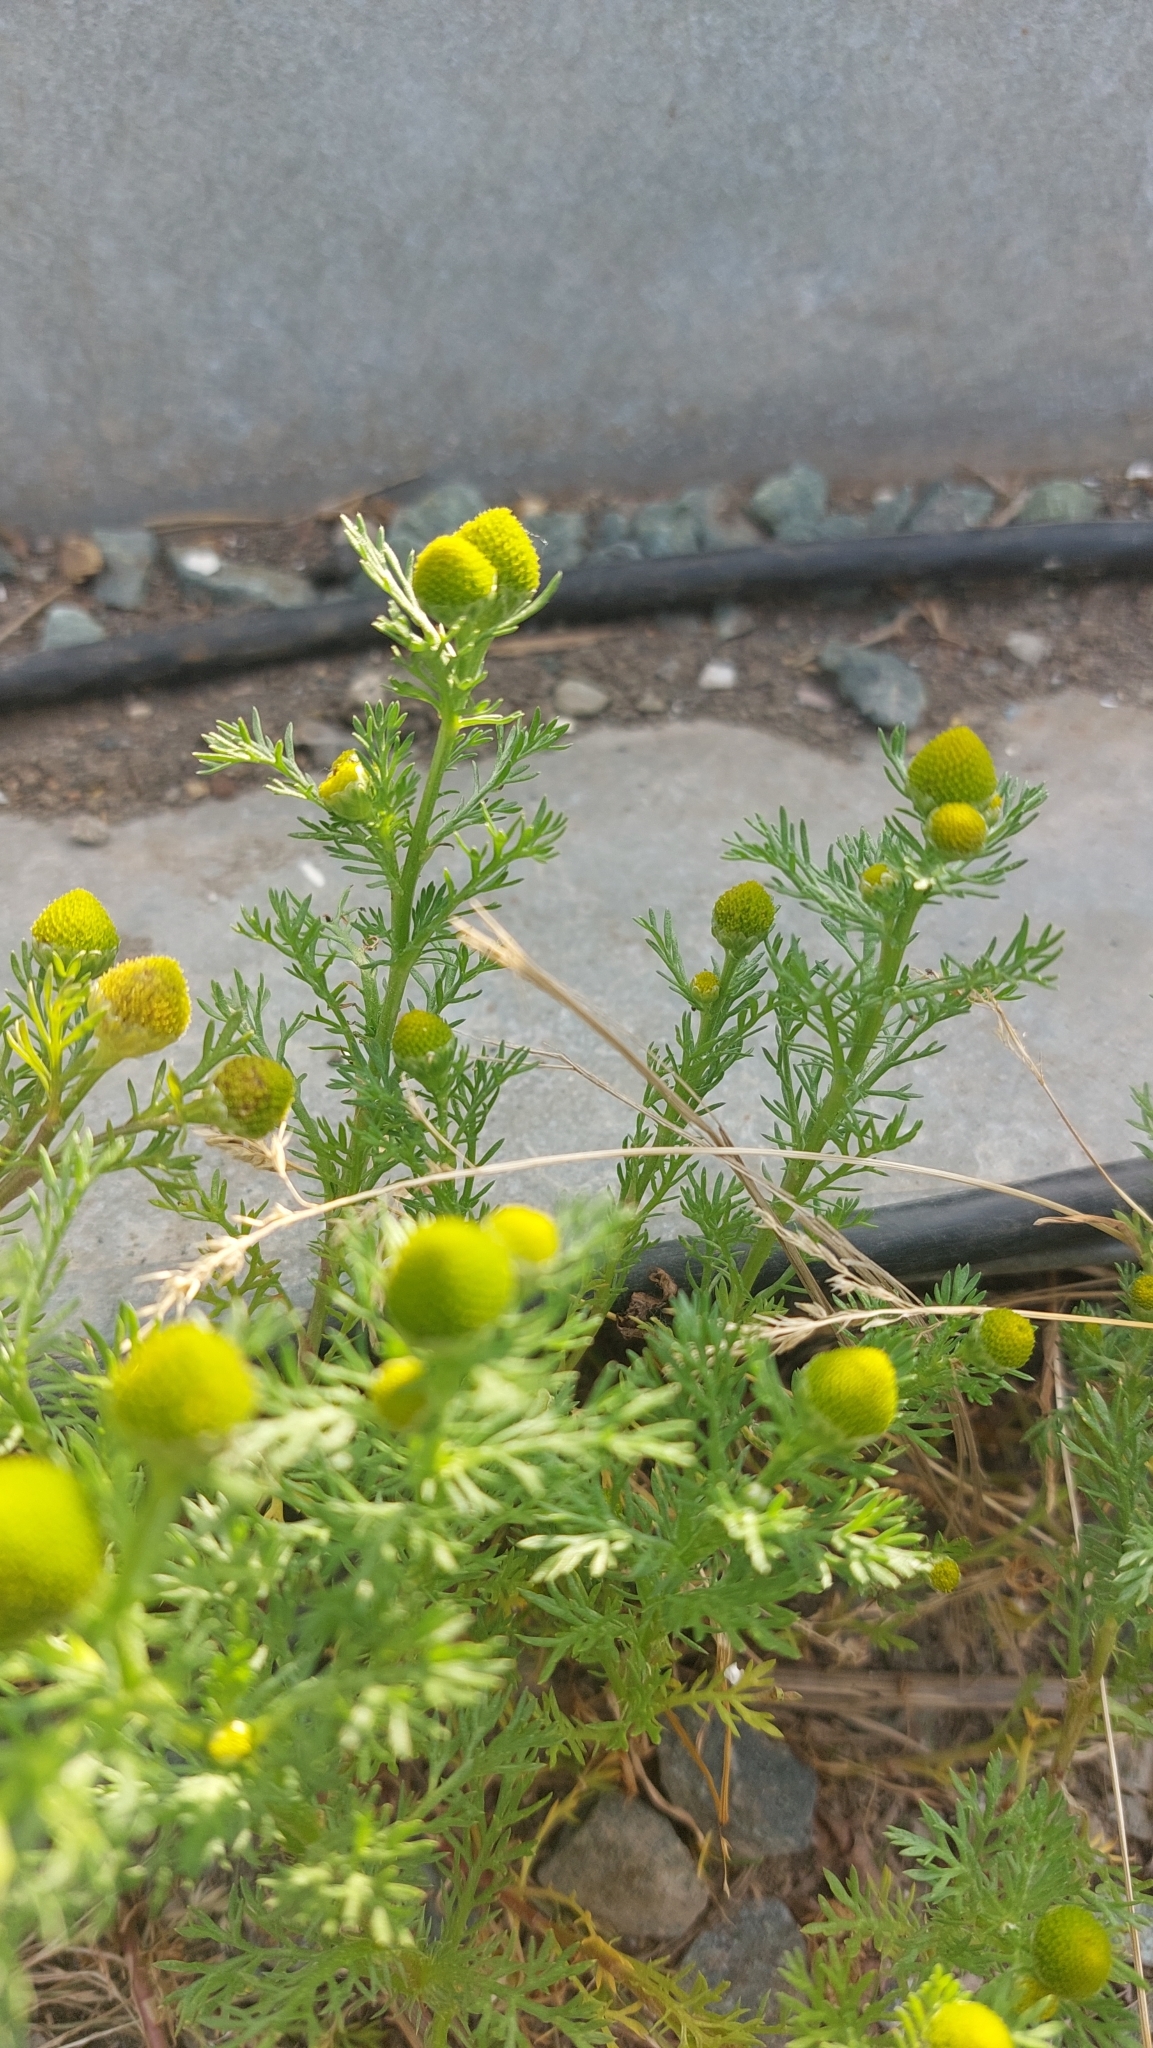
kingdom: Plantae
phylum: Tracheophyta
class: Magnoliopsida
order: Asterales
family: Asteraceae
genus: Matricaria
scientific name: Matricaria discoidea
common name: Disc mayweed
